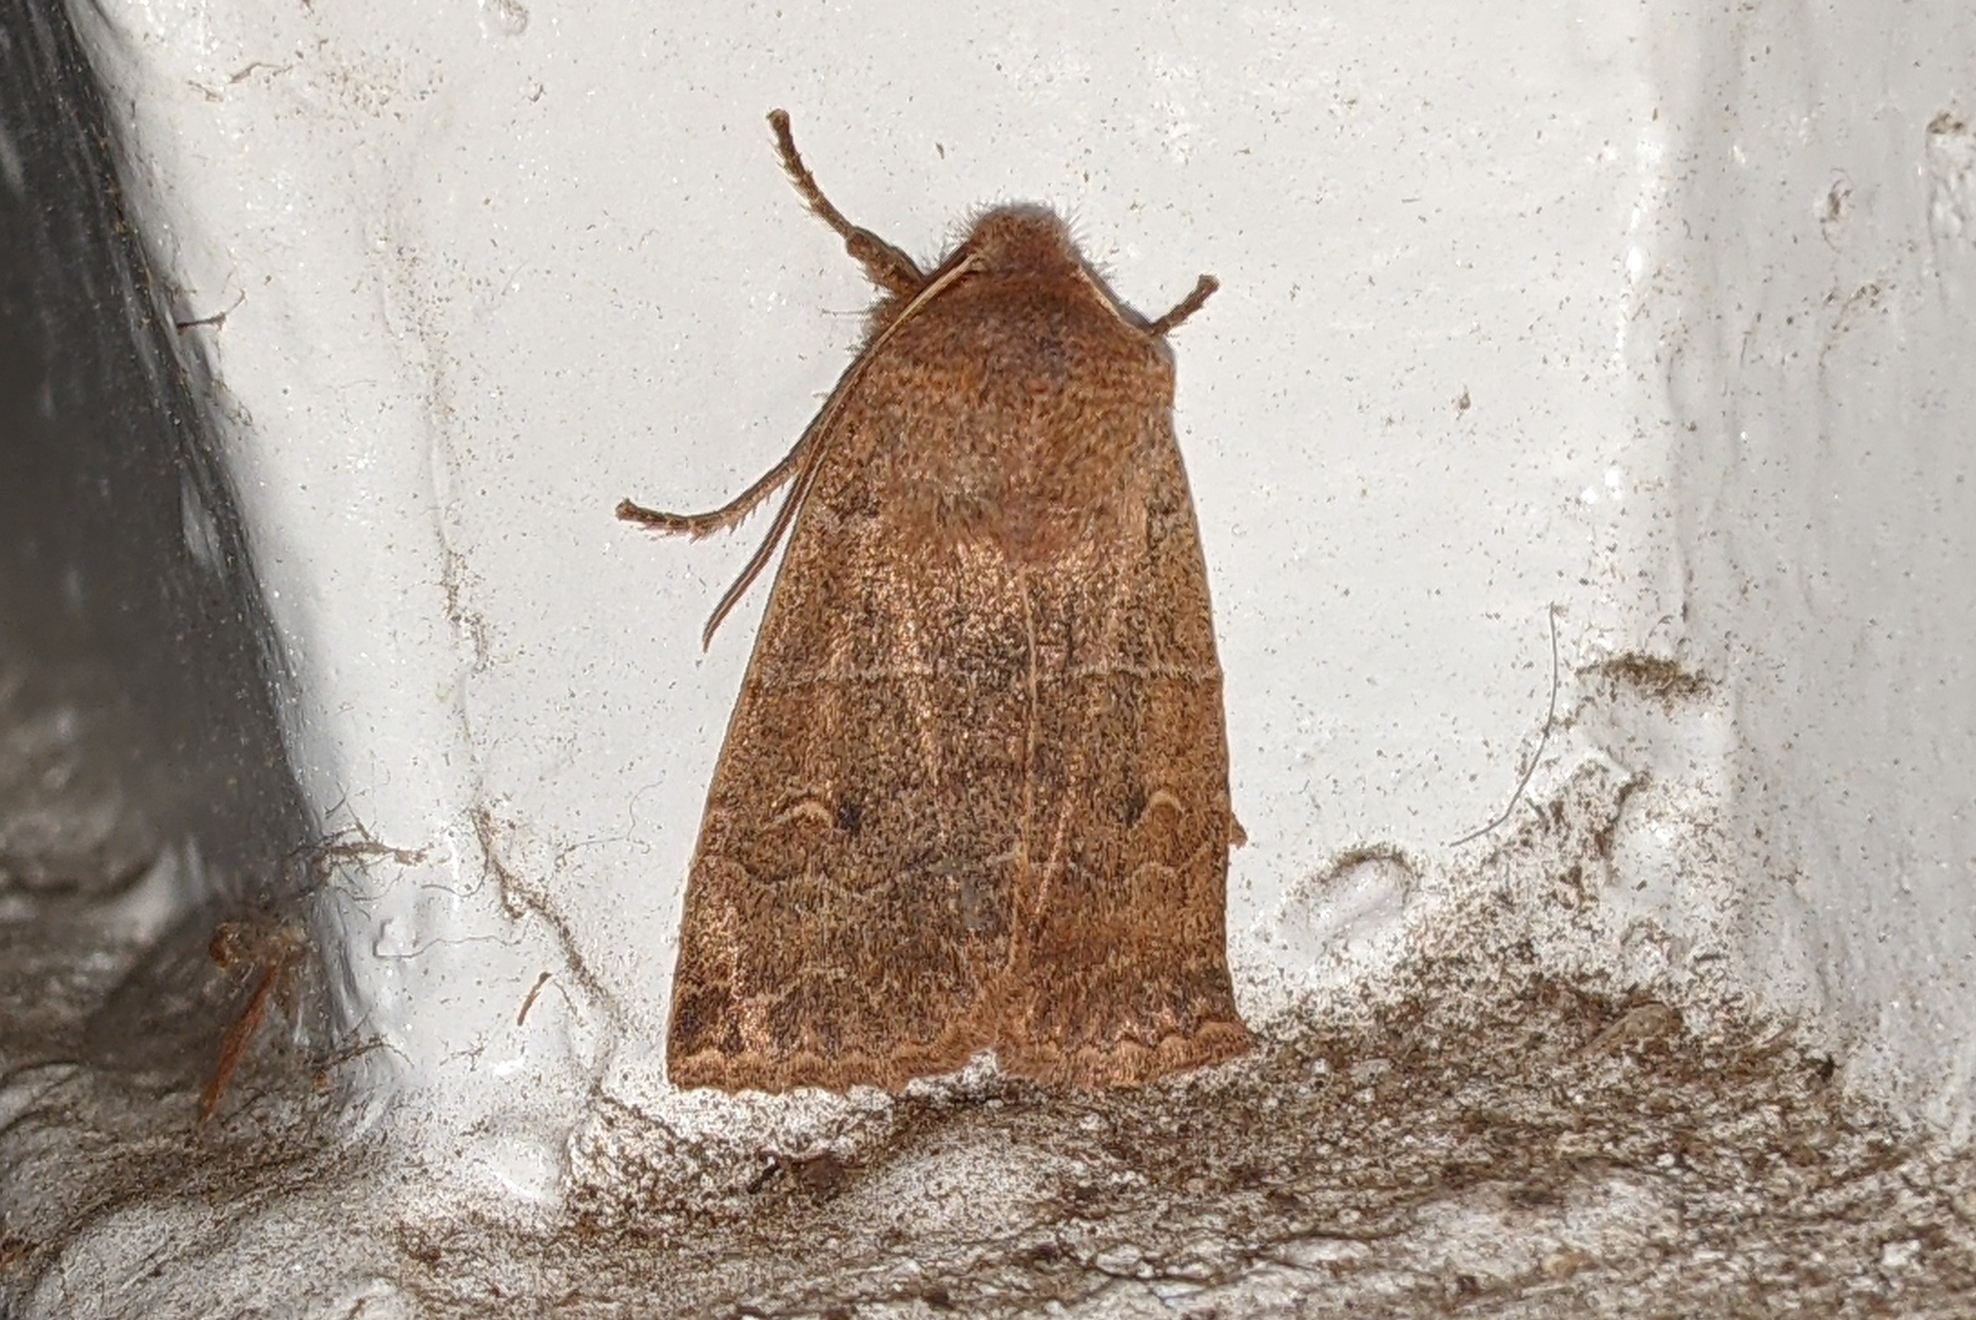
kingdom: Animalia
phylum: Arthropoda
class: Insecta
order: Lepidoptera
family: Noctuidae
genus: Eupsilia
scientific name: Eupsilia morrisoni
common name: Morrison's sallow
